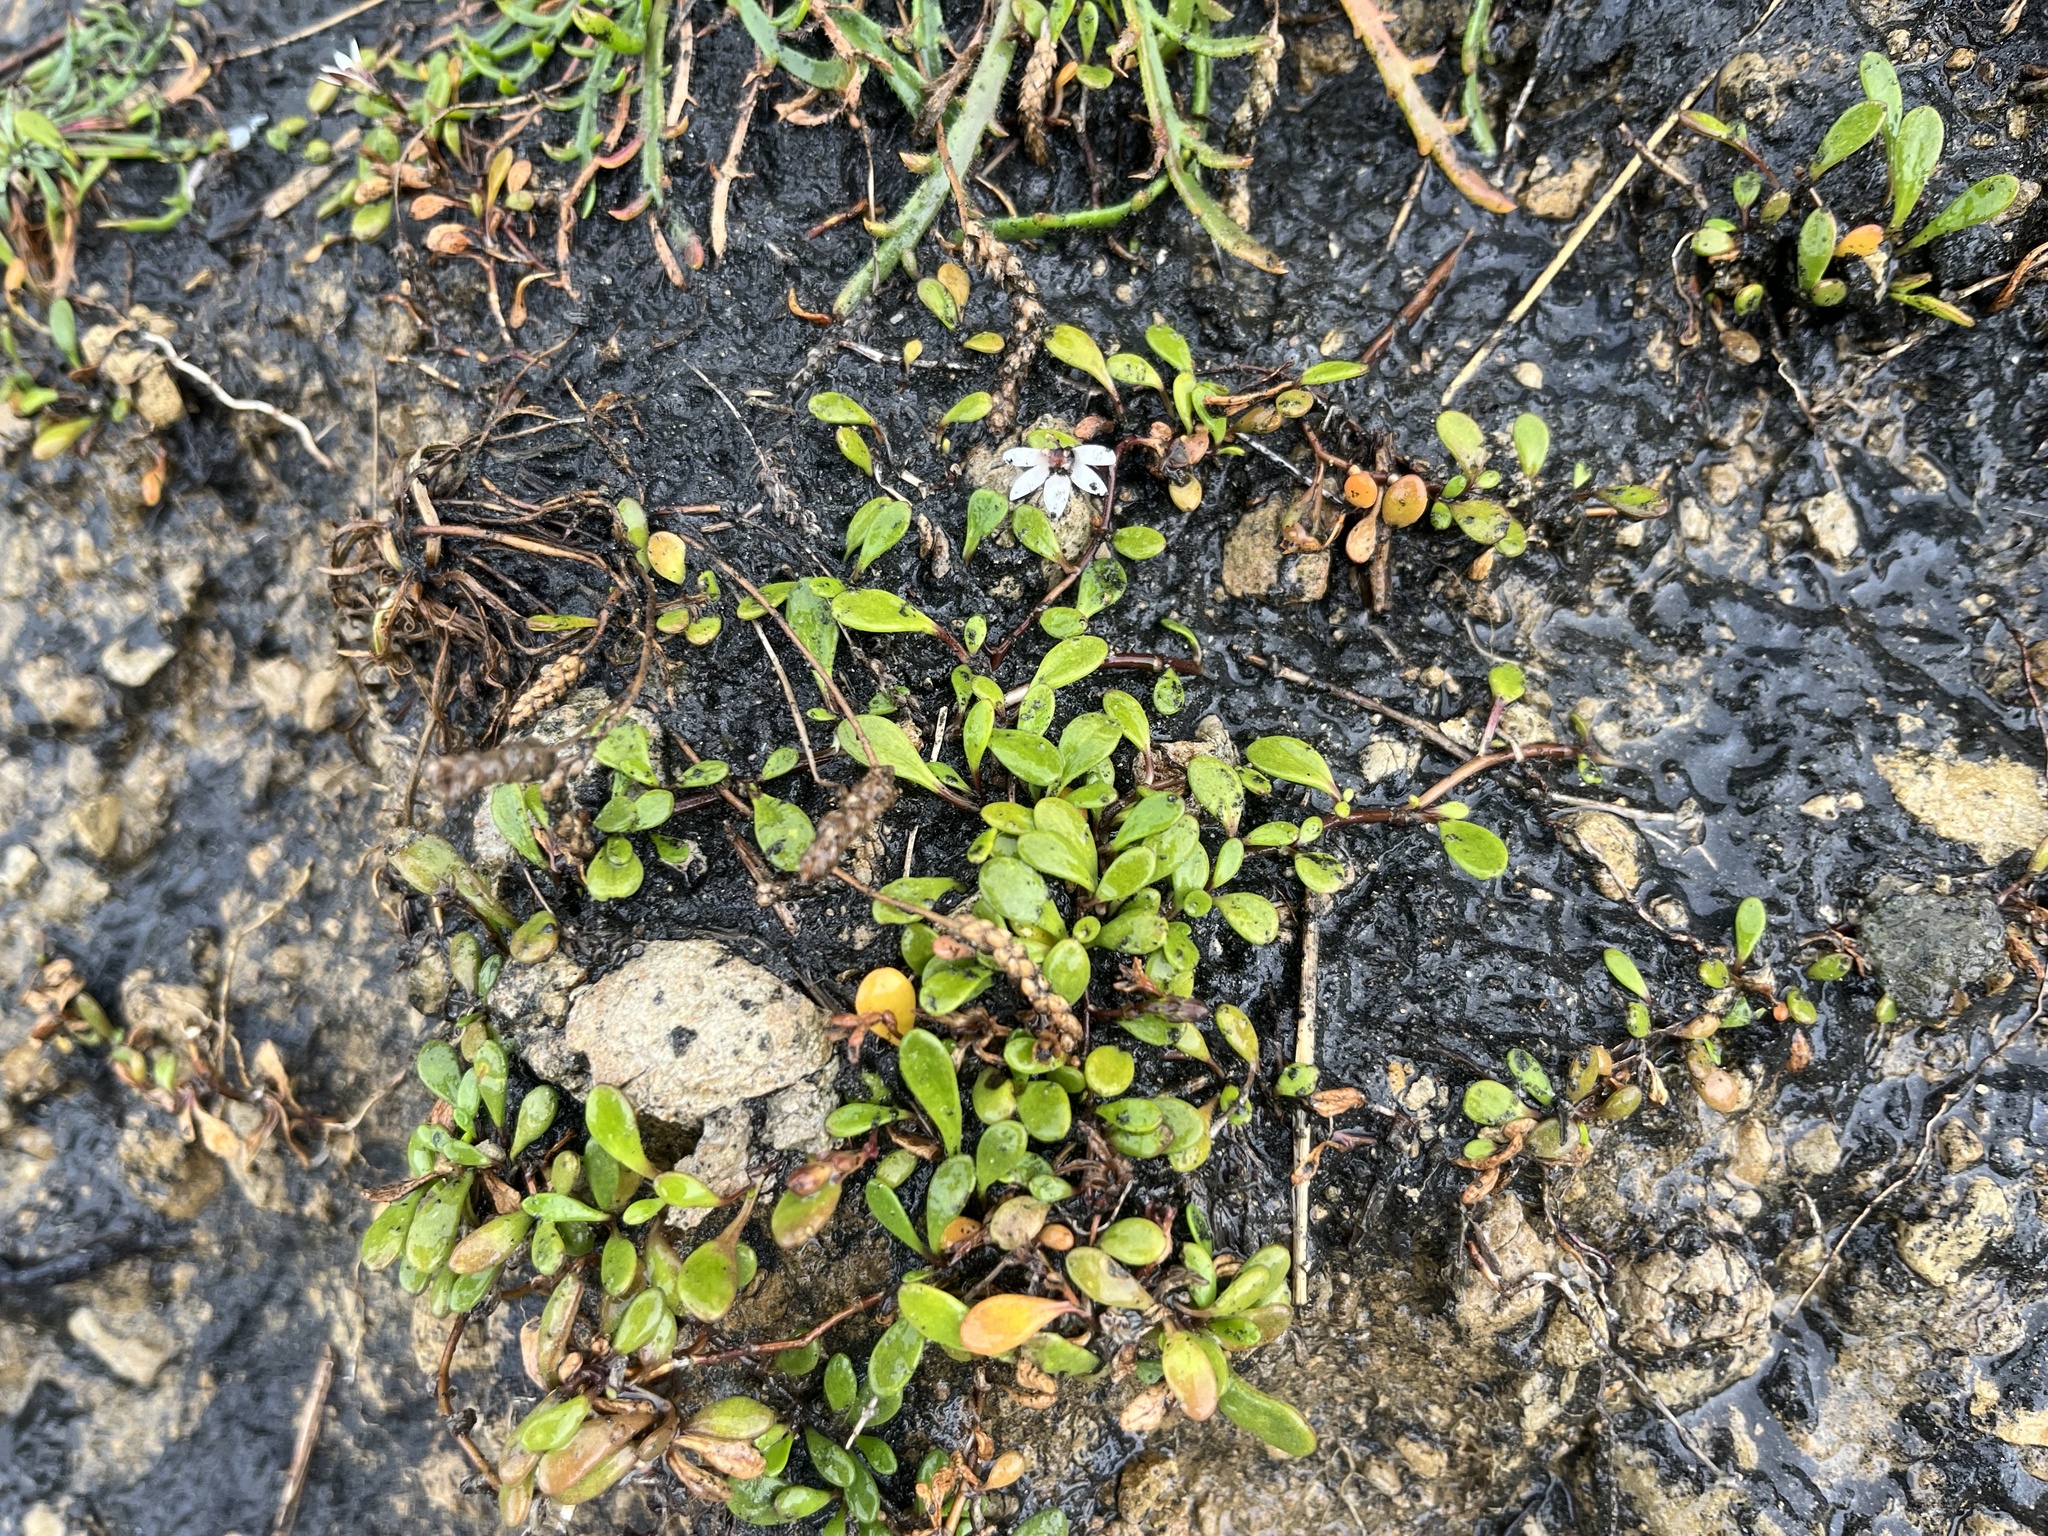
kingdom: Plantae
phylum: Tracheophyta
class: Magnoliopsida
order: Asterales
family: Goodeniaceae
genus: Goodenia
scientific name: Goodenia radicans
